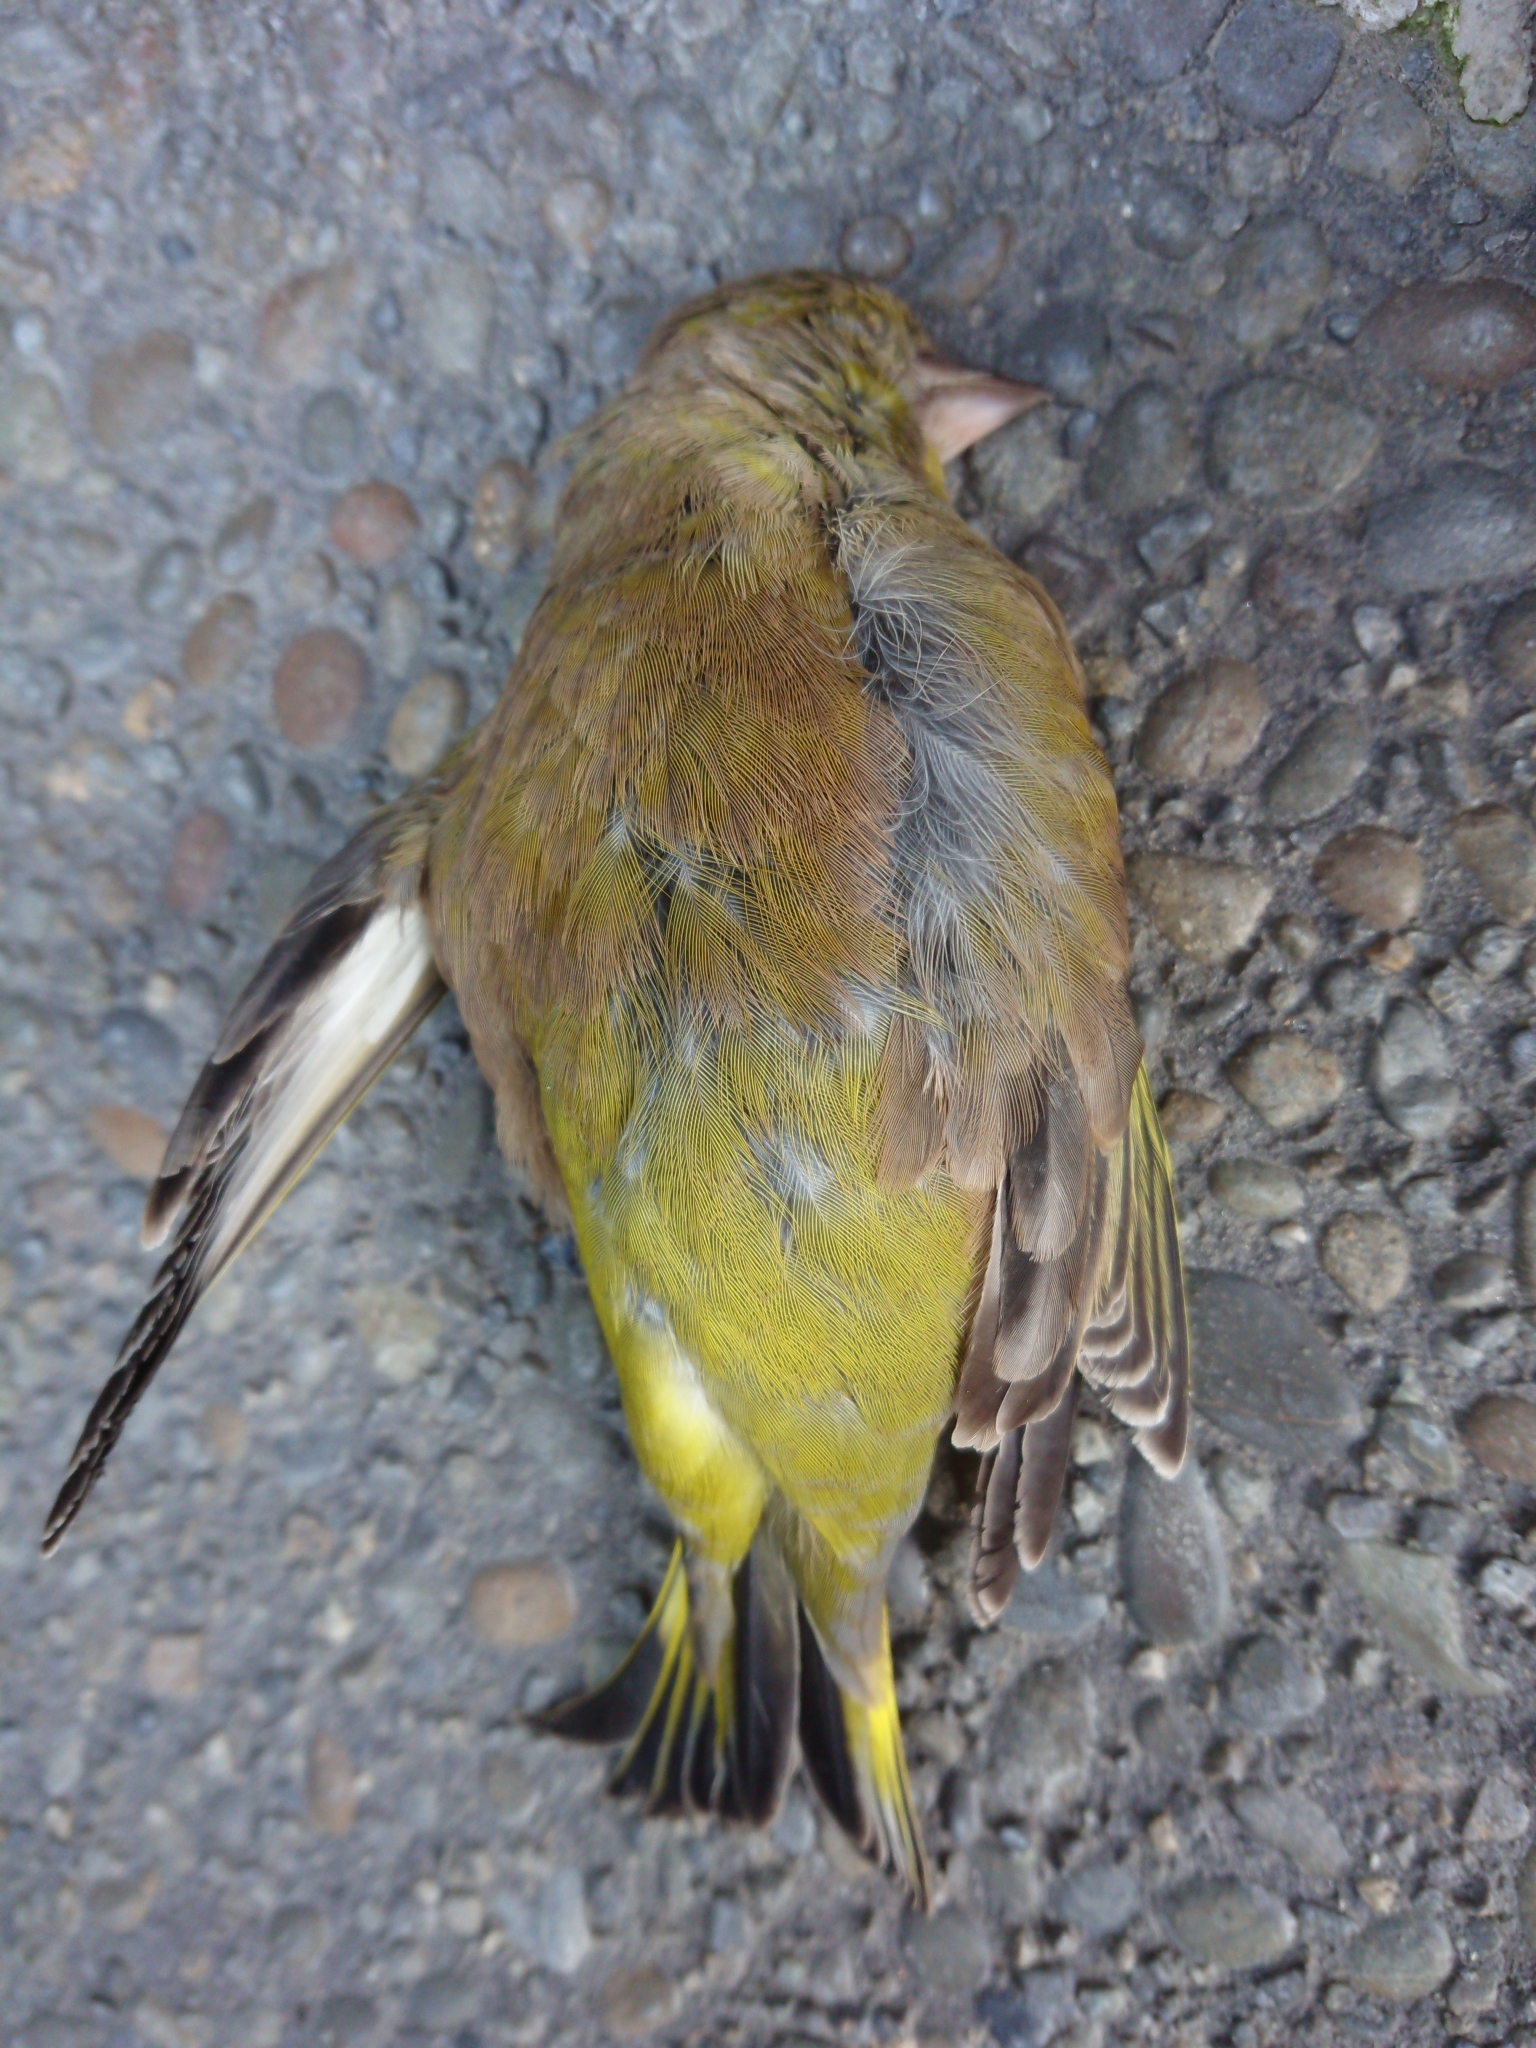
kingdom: Plantae
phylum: Tracheophyta
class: Liliopsida
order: Poales
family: Poaceae
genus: Chloris
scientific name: Chloris chloris
